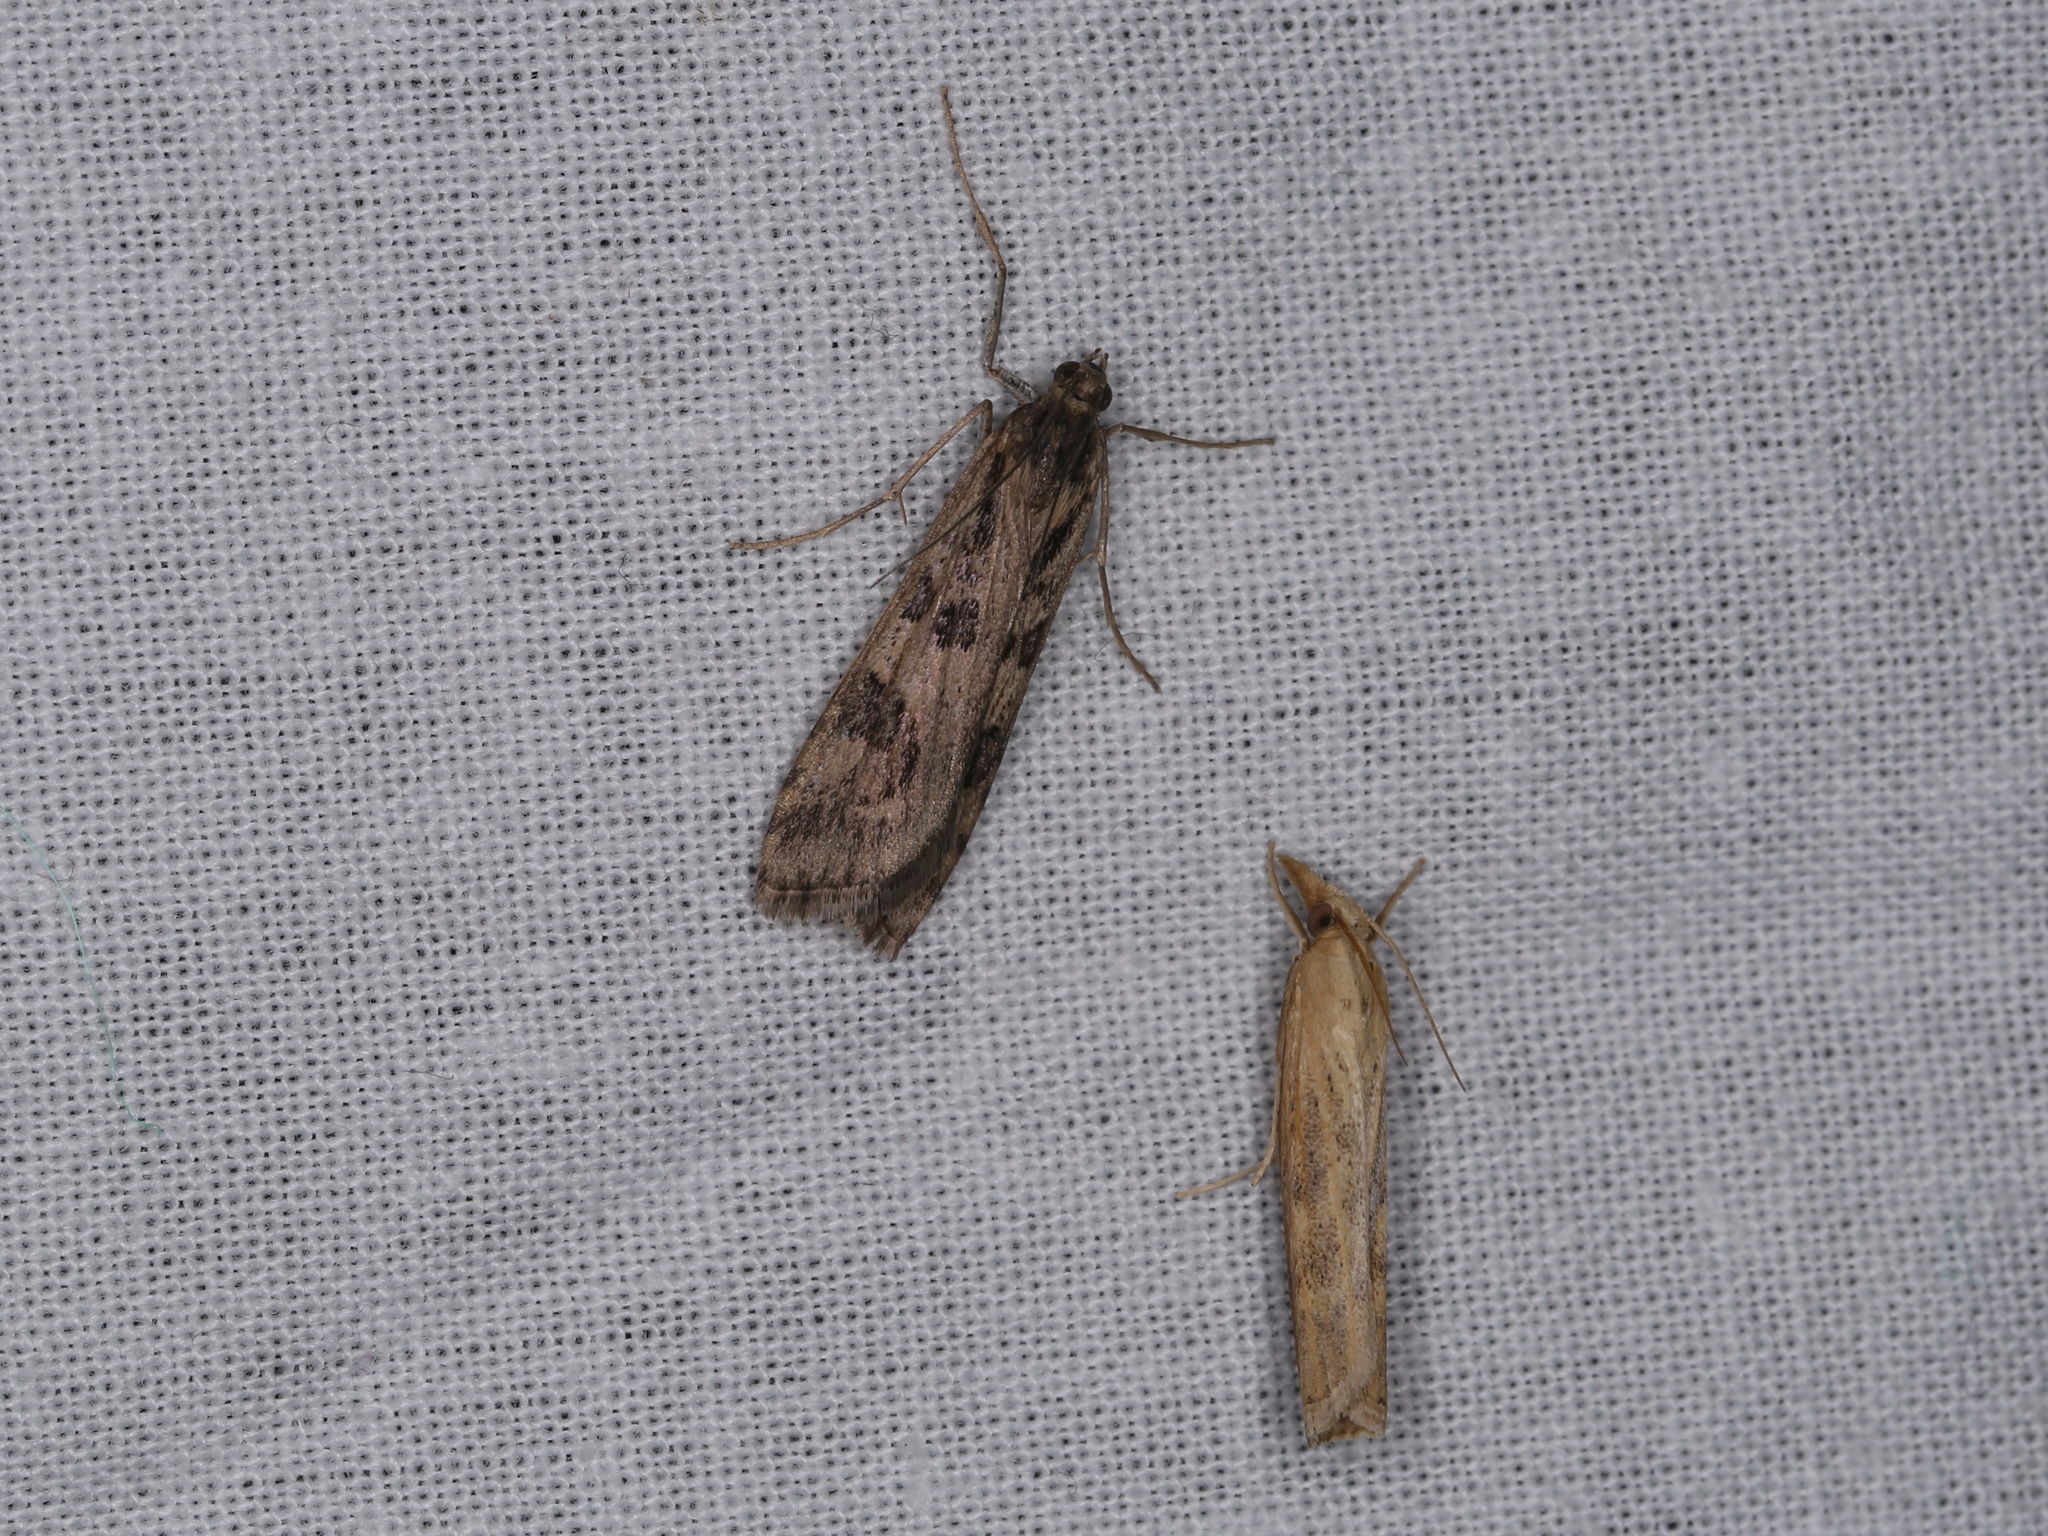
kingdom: Animalia
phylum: Arthropoda
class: Insecta
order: Lepidoptera
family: Crambidae
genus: Nomophila
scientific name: Nomophila noctuella
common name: Rush veneer
